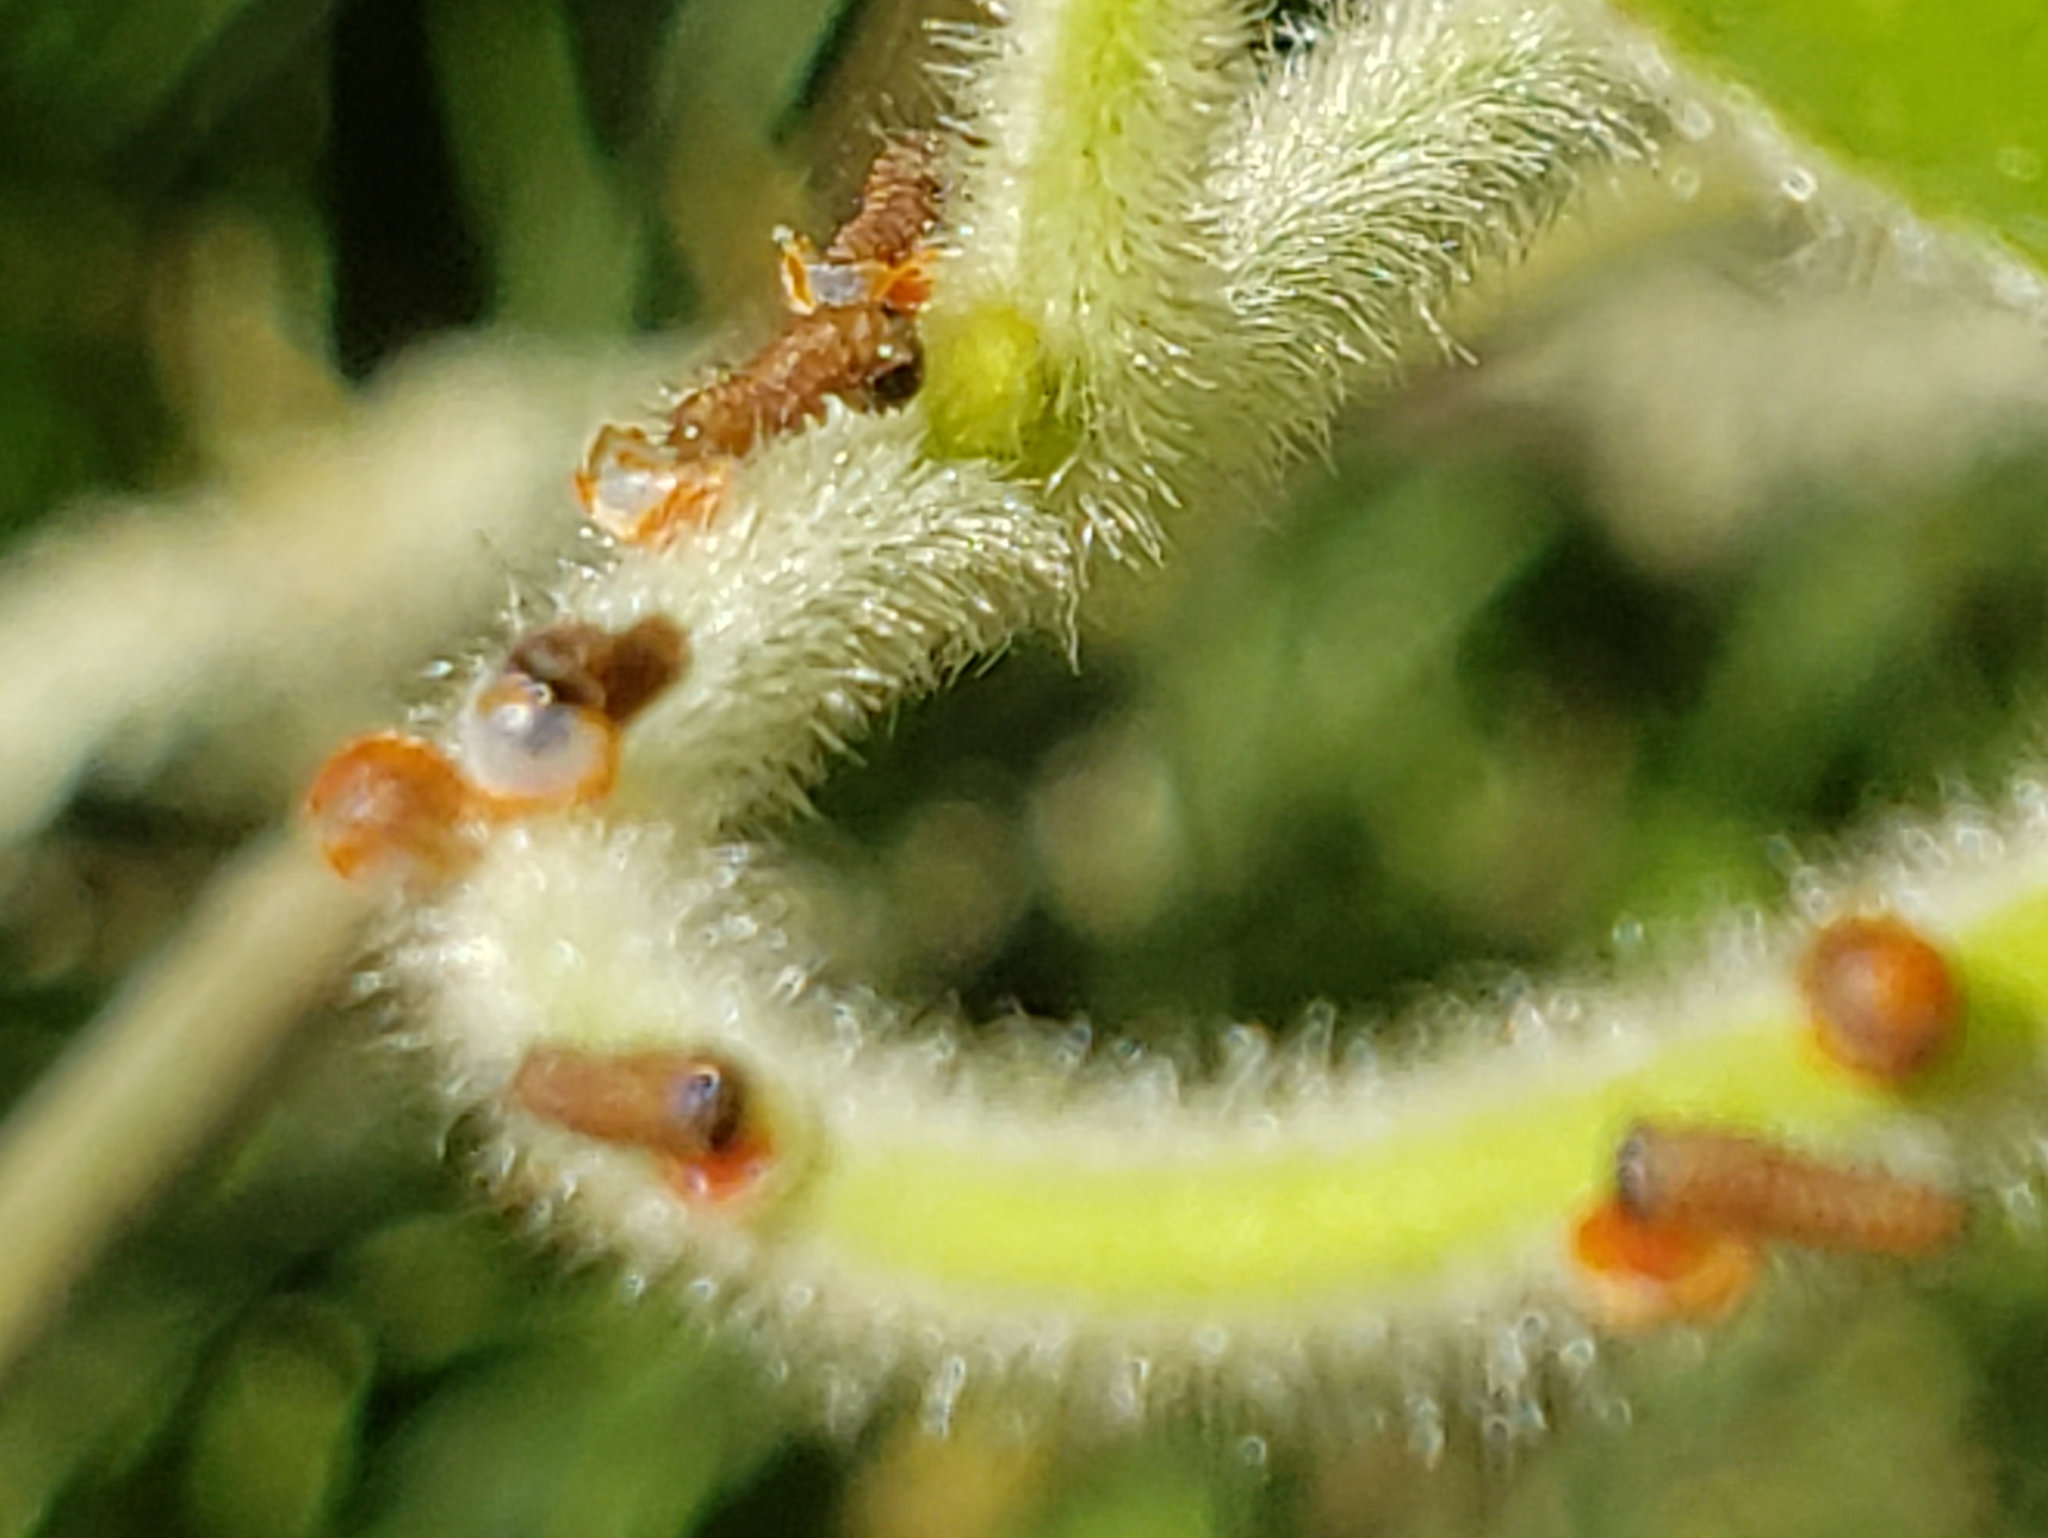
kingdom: Animalia
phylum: Arthropoda
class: Insecta
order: Lepidoptera
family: Papilionidae
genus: Battus
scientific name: Battus philenor
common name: Pipevine swallowtail
